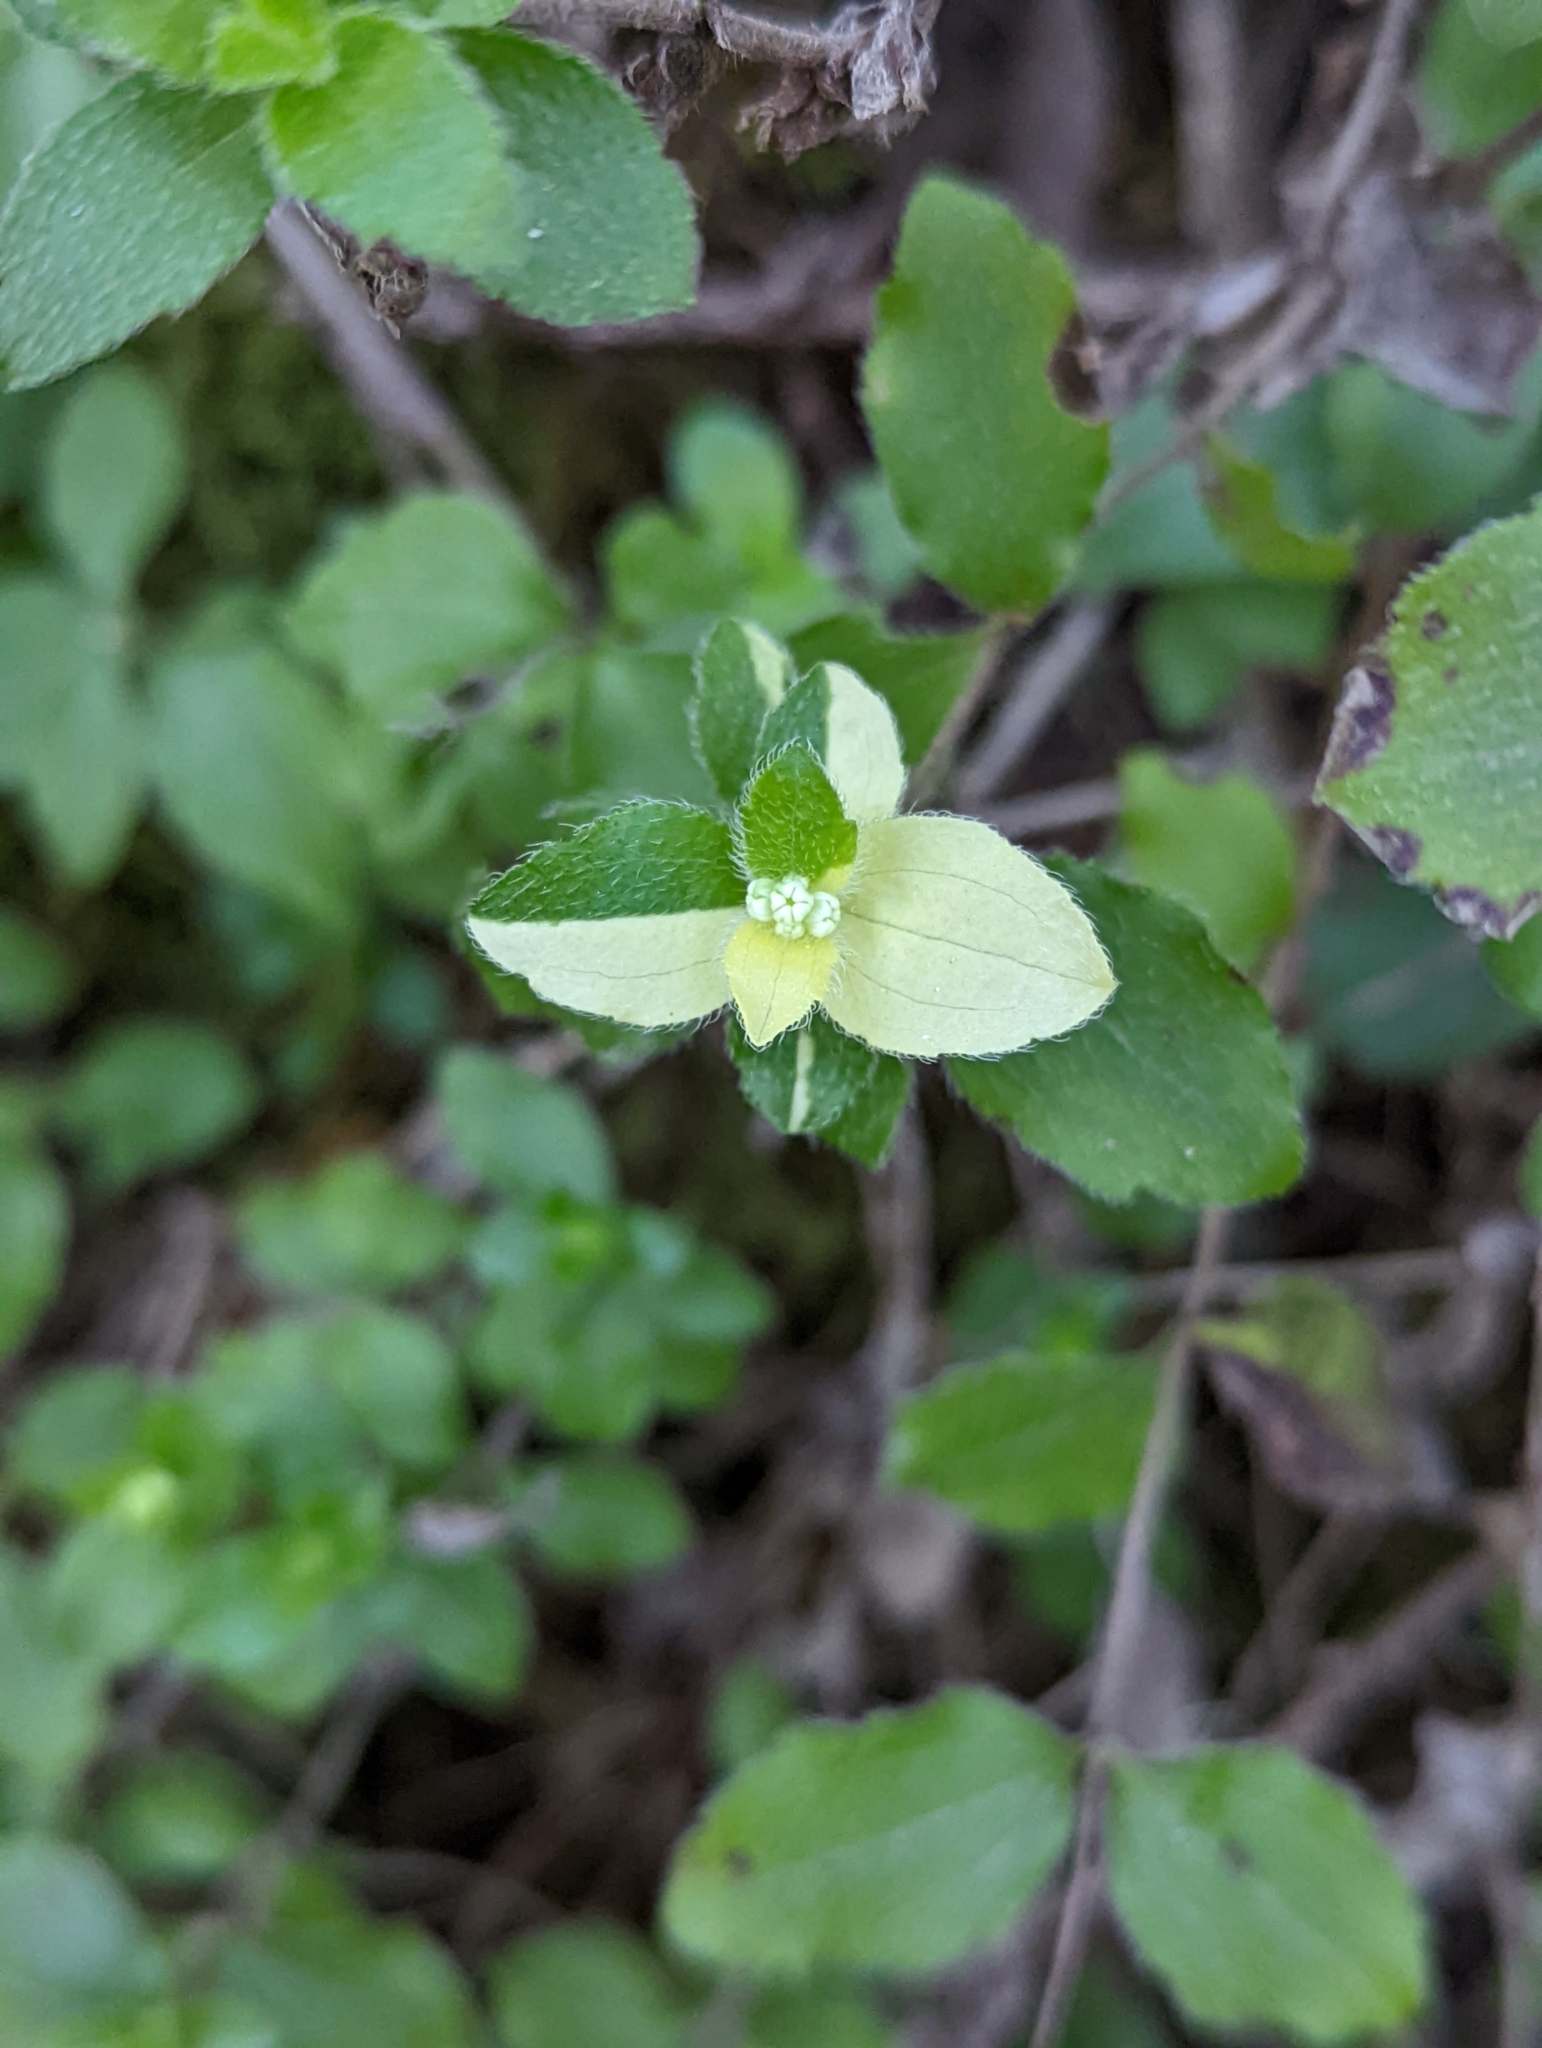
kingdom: Plantae
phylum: Tracheophyta
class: Magnoliopsida
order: Cornales
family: Hydrangeaceae
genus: Whipplea
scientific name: Whipplea modesta
